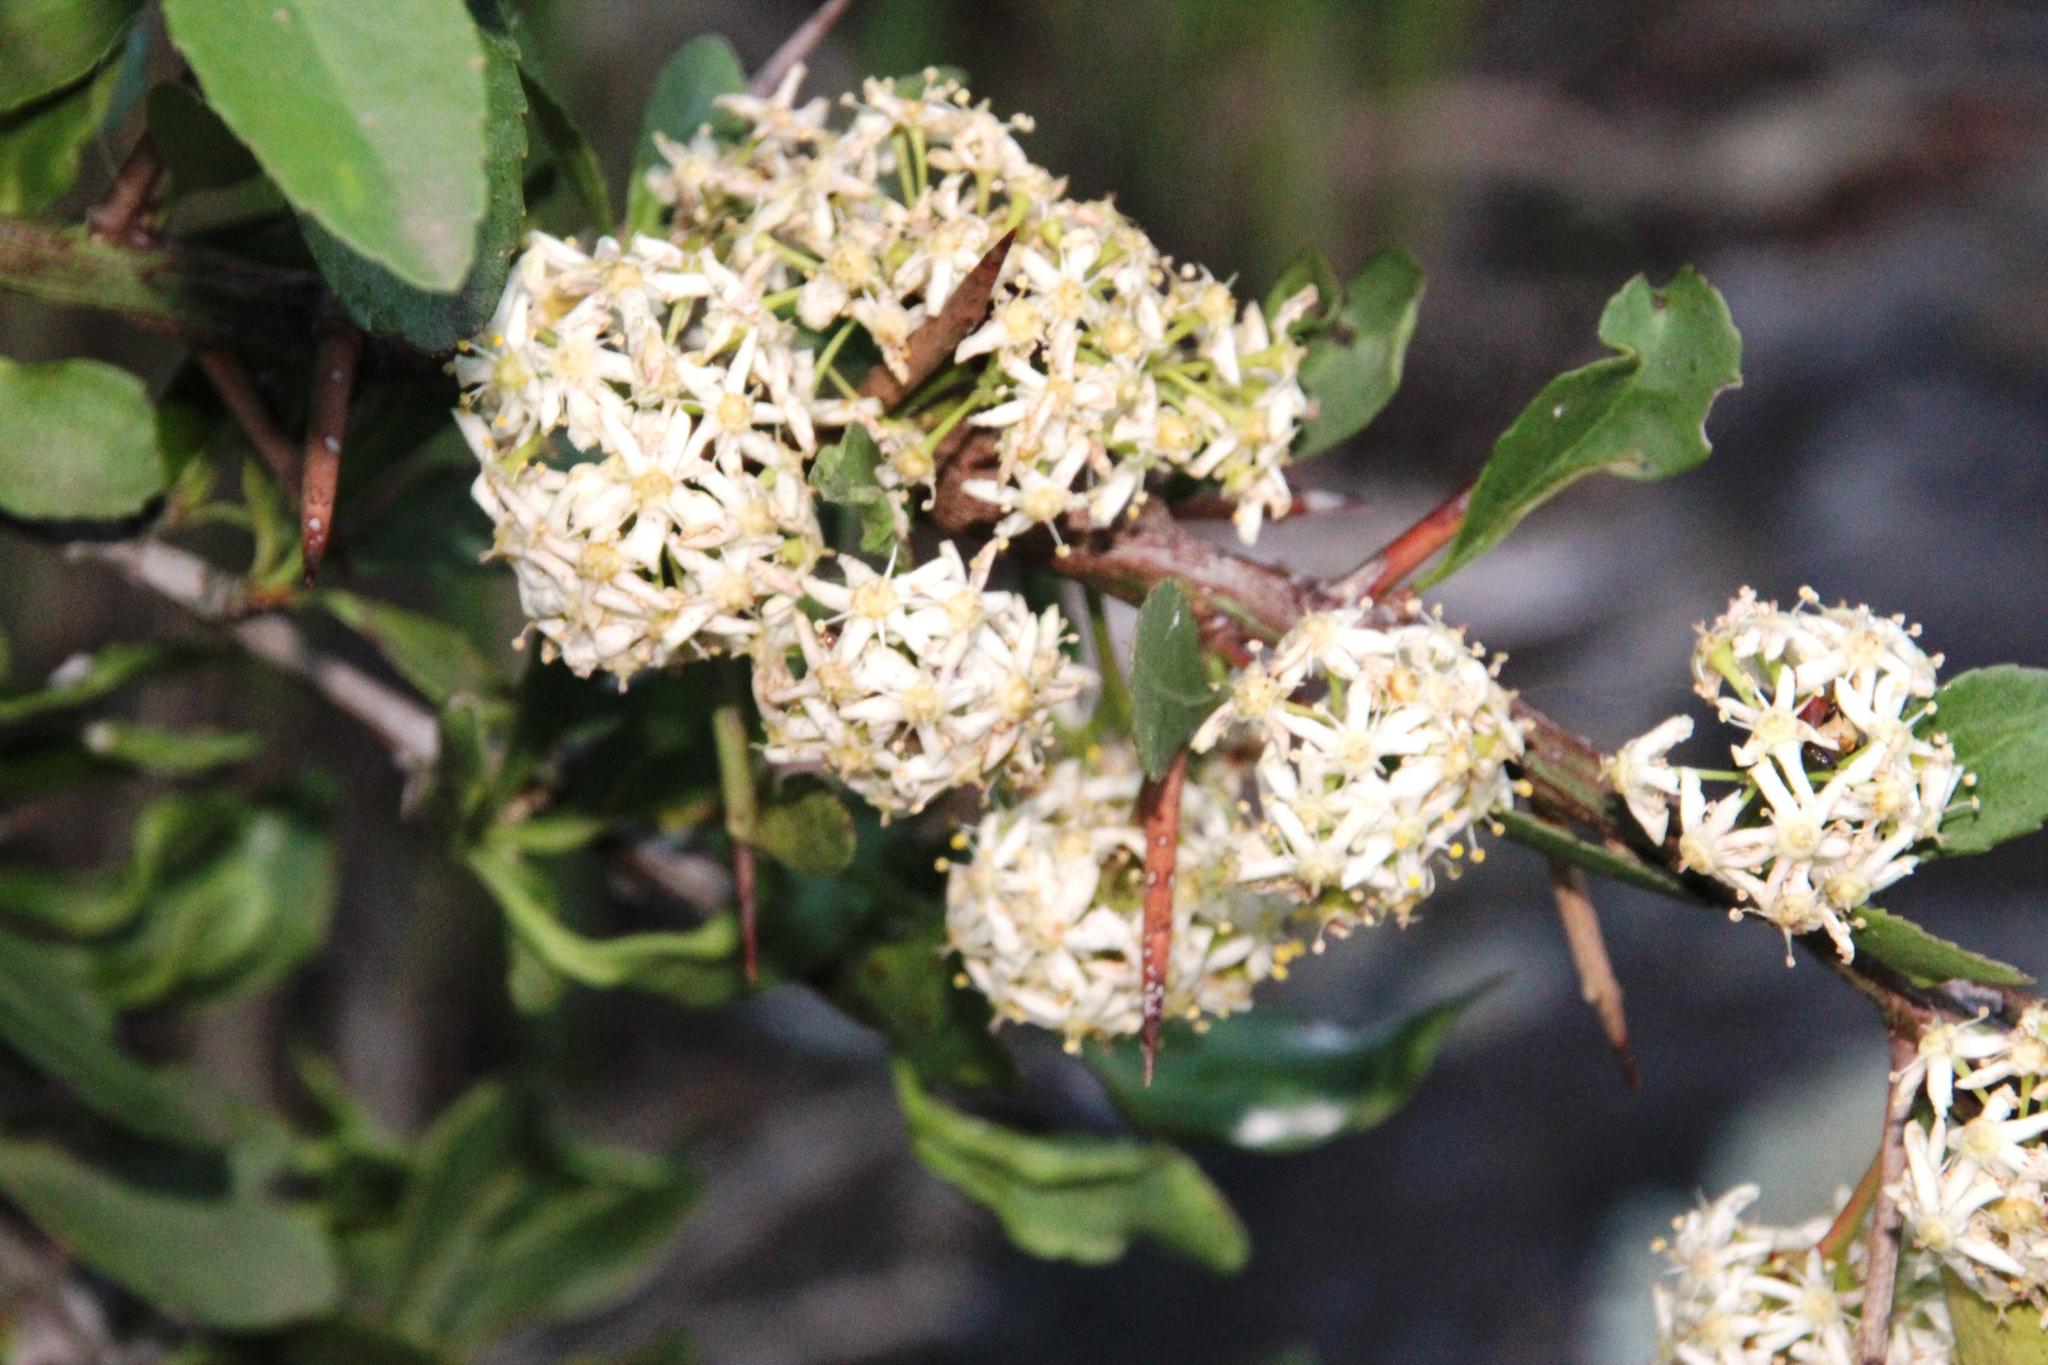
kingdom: Plantae
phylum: Tracheophyta
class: Magnoliopsida
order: Celastrales
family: Celastraceae
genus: Gymnosporia
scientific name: Gymnosporia buxifolia
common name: Common spike-thorn
